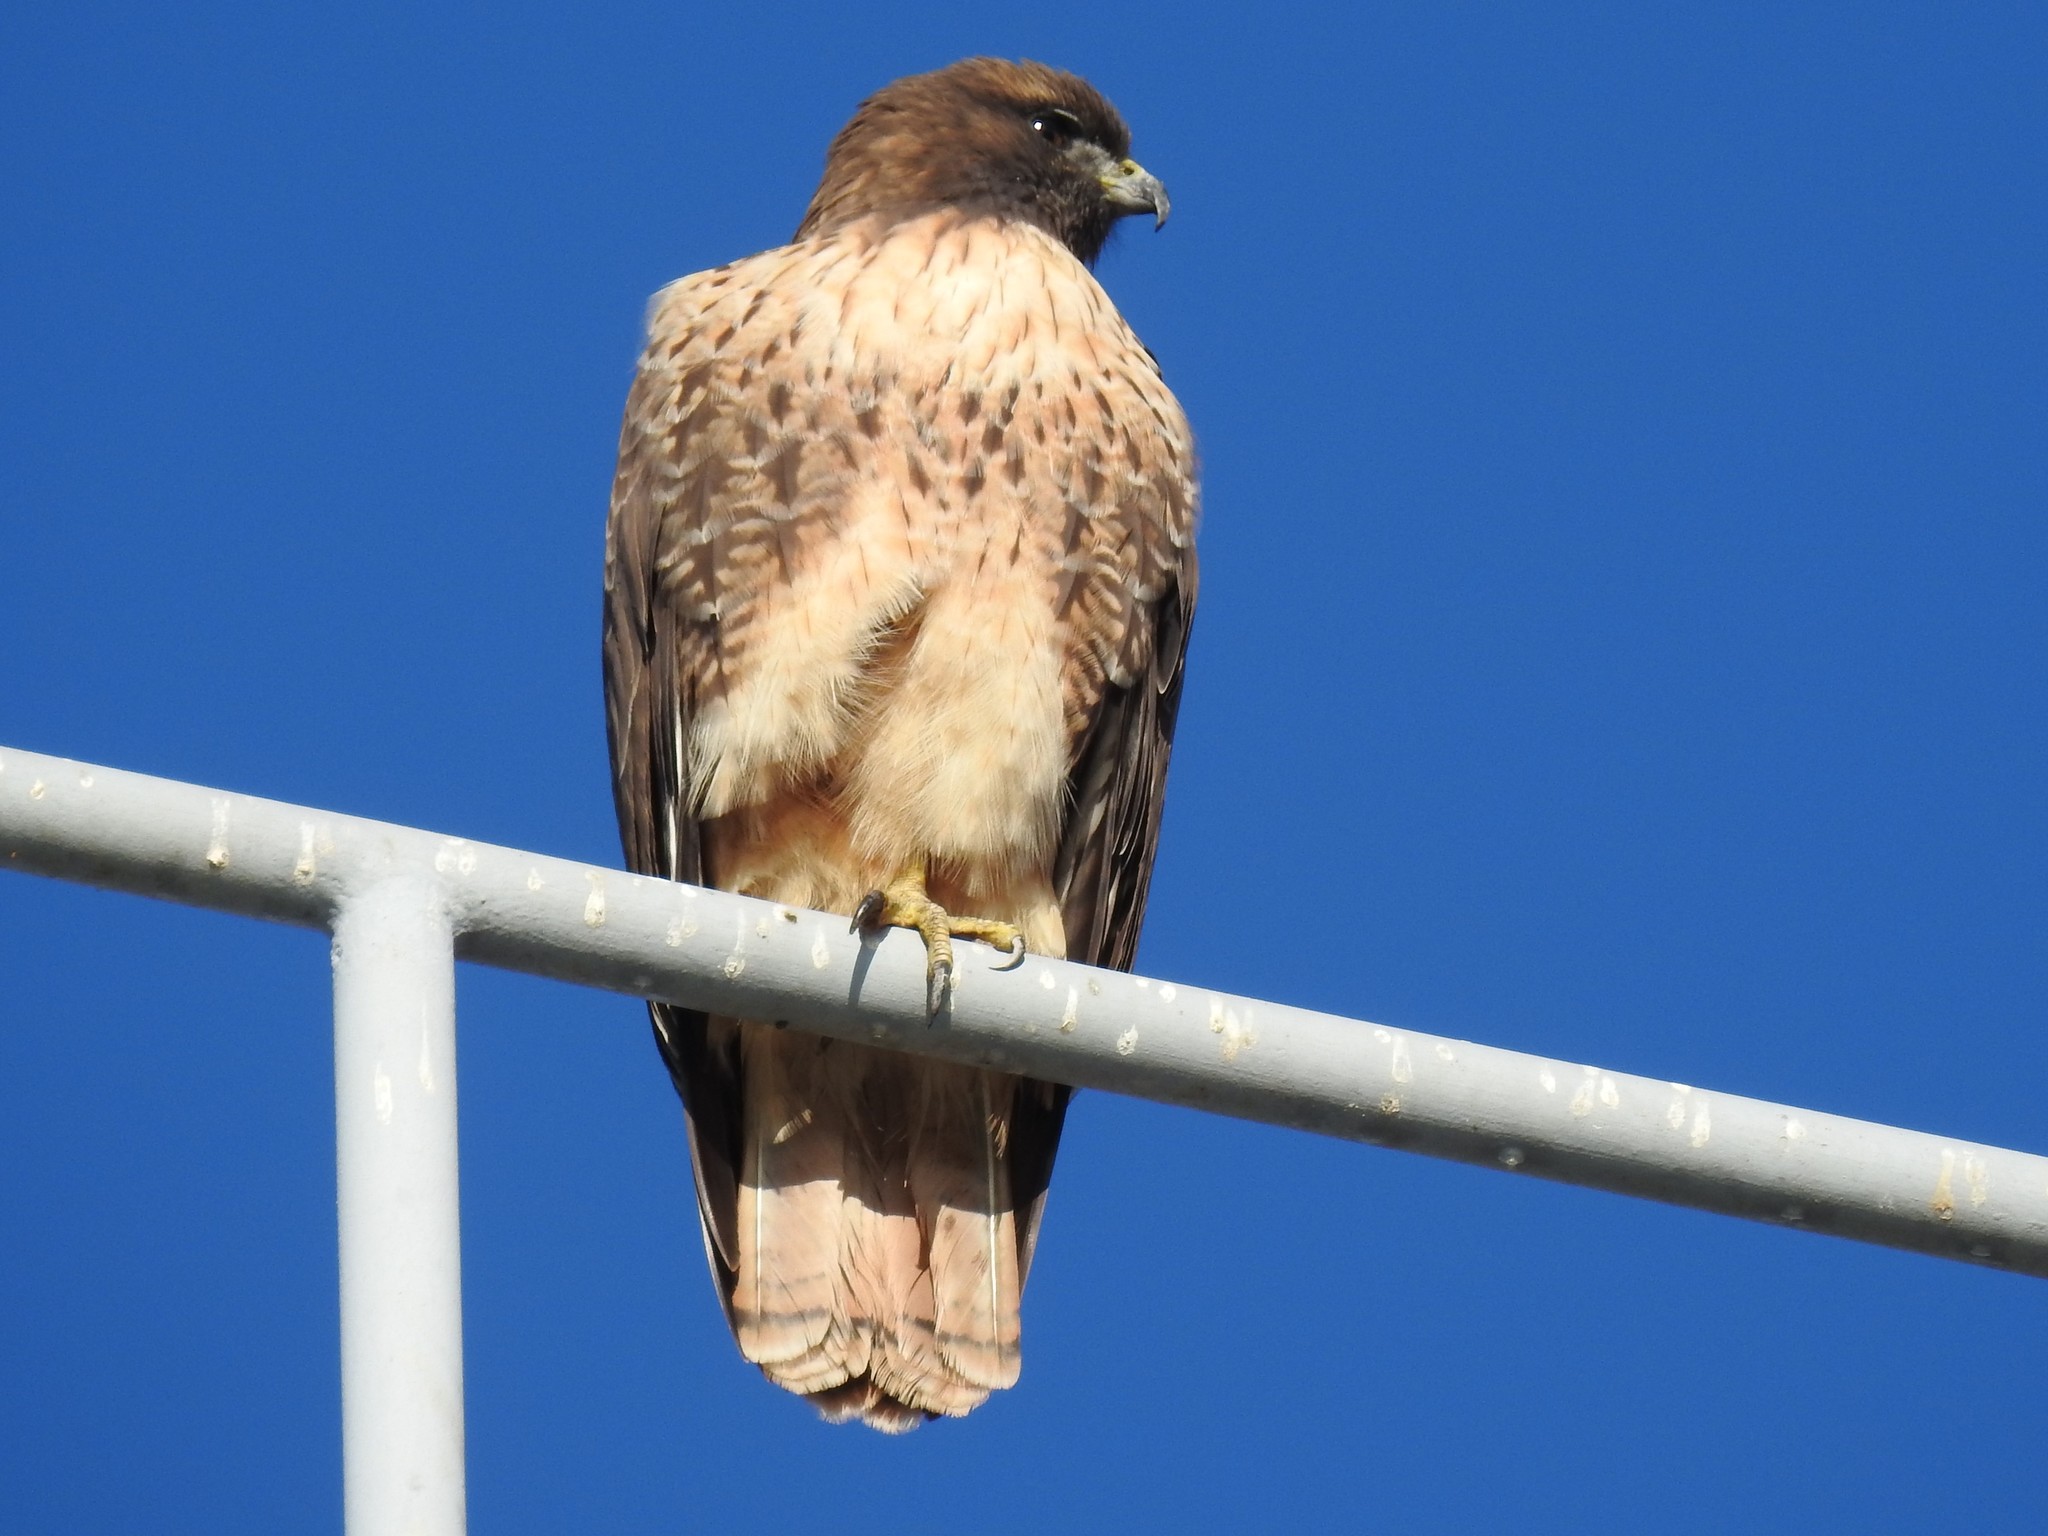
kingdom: Animalia
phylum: Chordata
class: Aves
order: Accipitriformes
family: Accipitridae
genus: Buteo
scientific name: Buteo jamaicensis
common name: Red-tailed hawk
